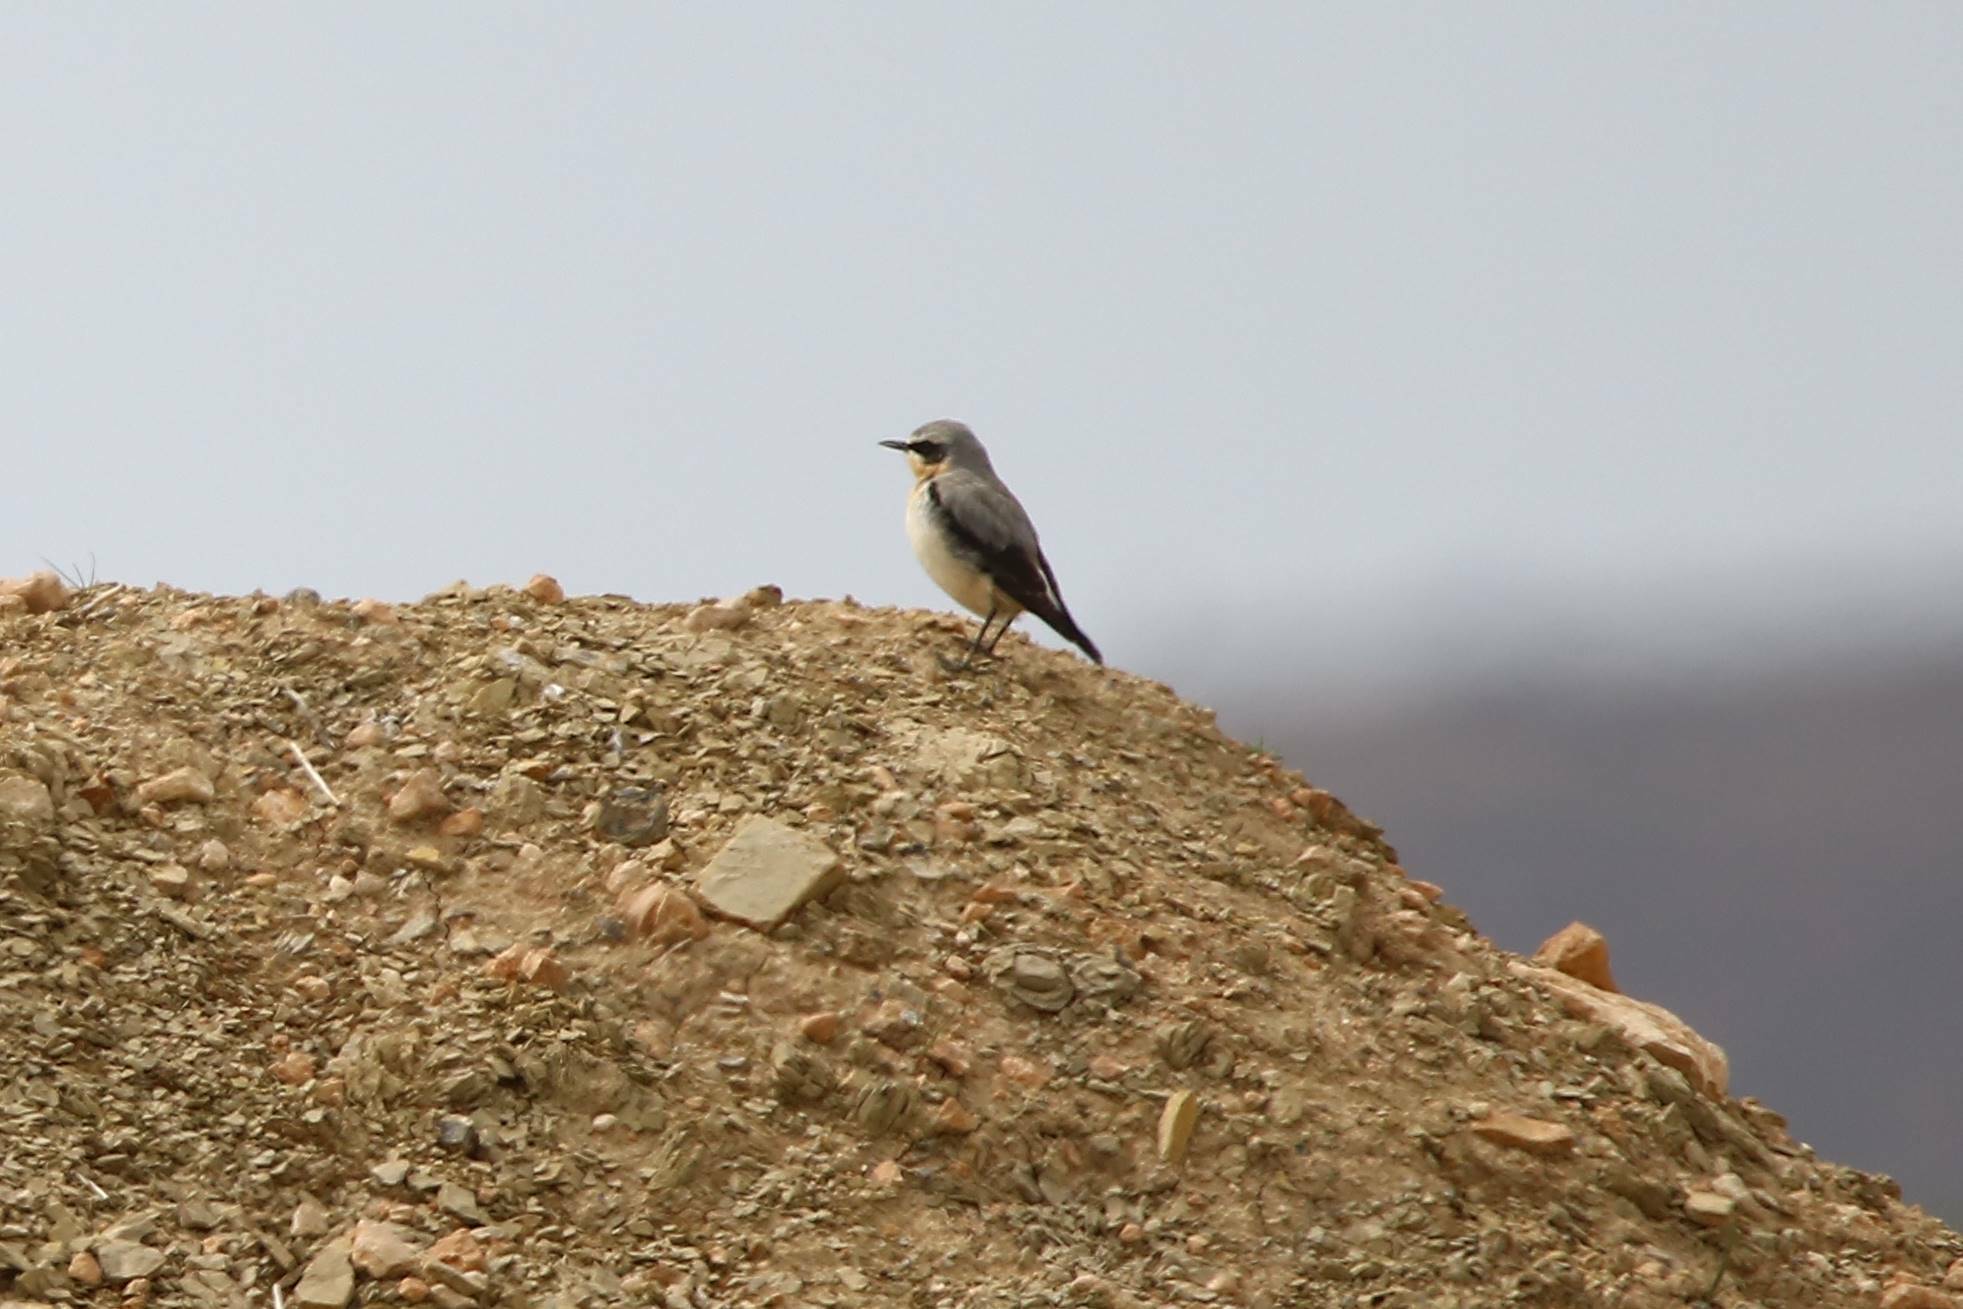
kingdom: Animalia
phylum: Chordata
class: Aves
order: Passeriformes
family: Muscicapidae
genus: Oenanthe
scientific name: Oenanthe oenanthe
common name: Northern wheatear
